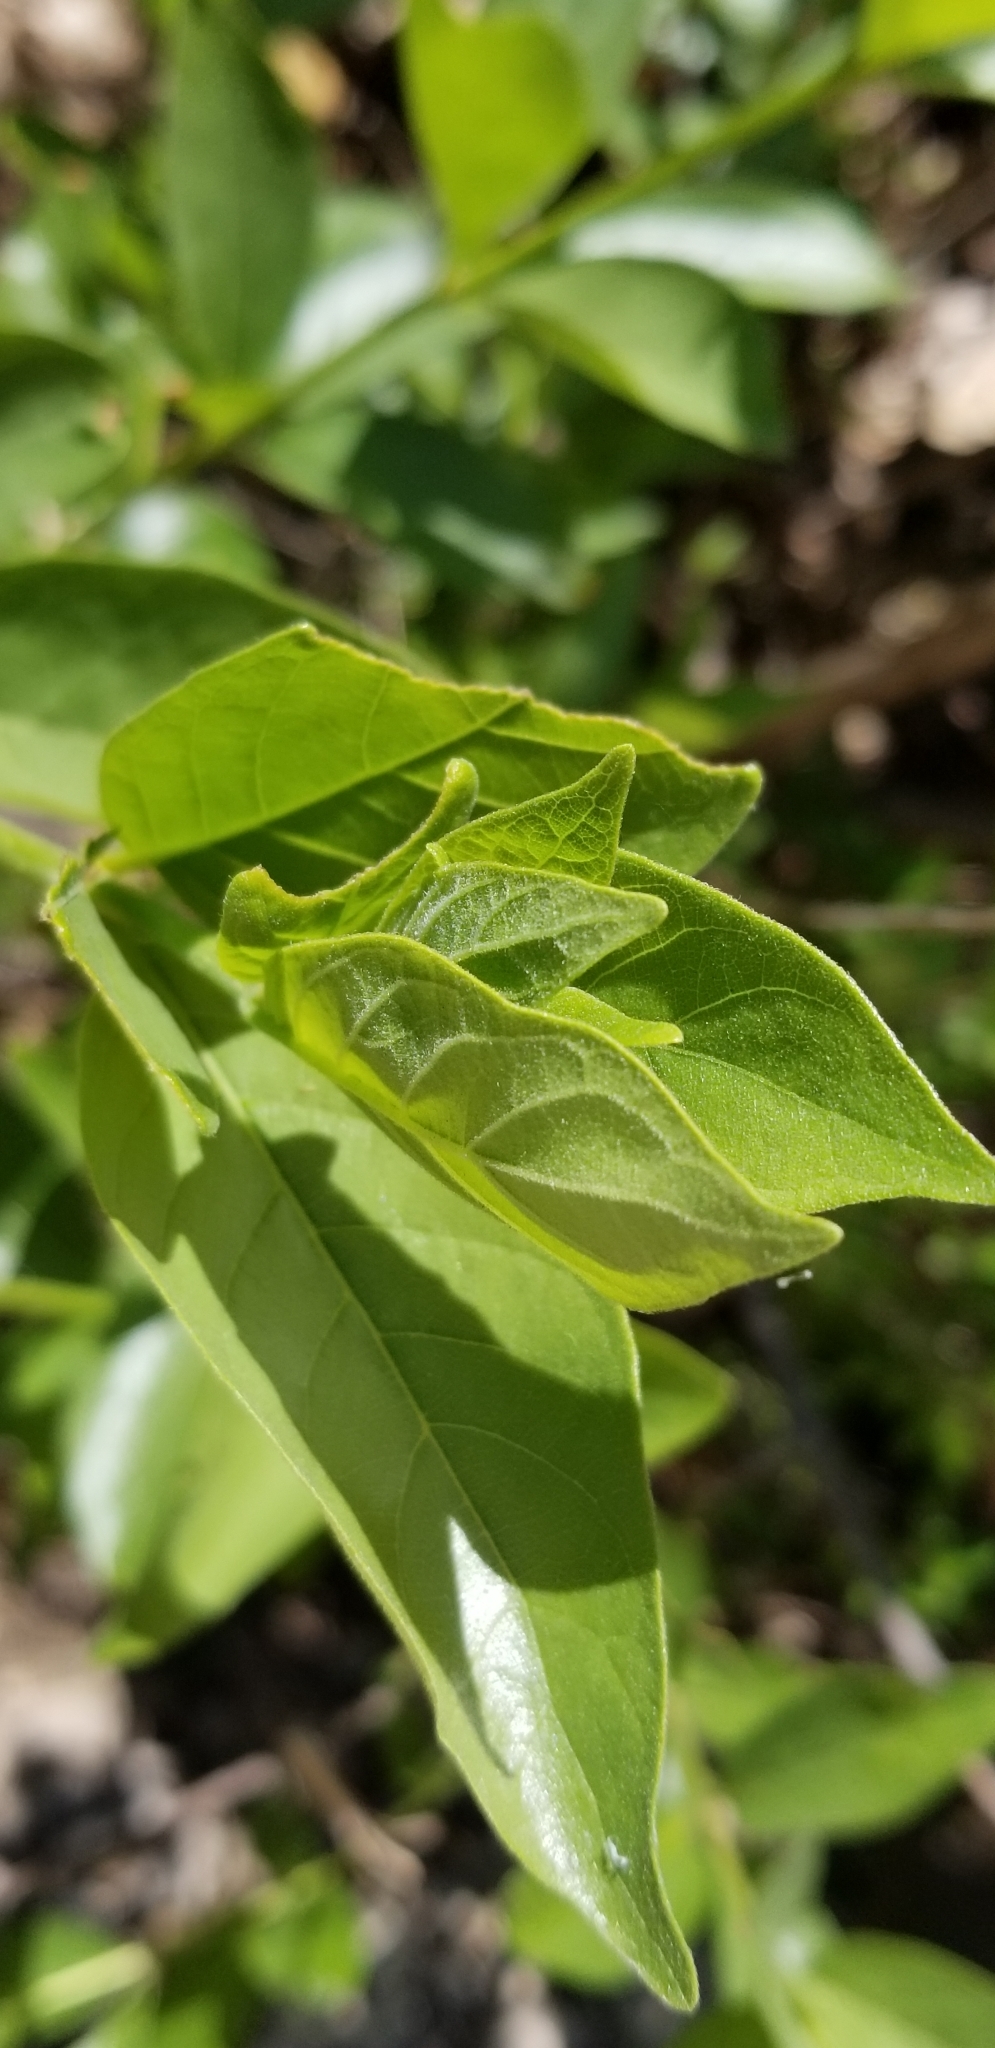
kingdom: Plantae
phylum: Tracheophyta
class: Magnoliopsida
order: Gentianales
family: Rubiaceae
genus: Cephalanthus
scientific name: Cephalanthus occidentalis
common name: Button-willow
